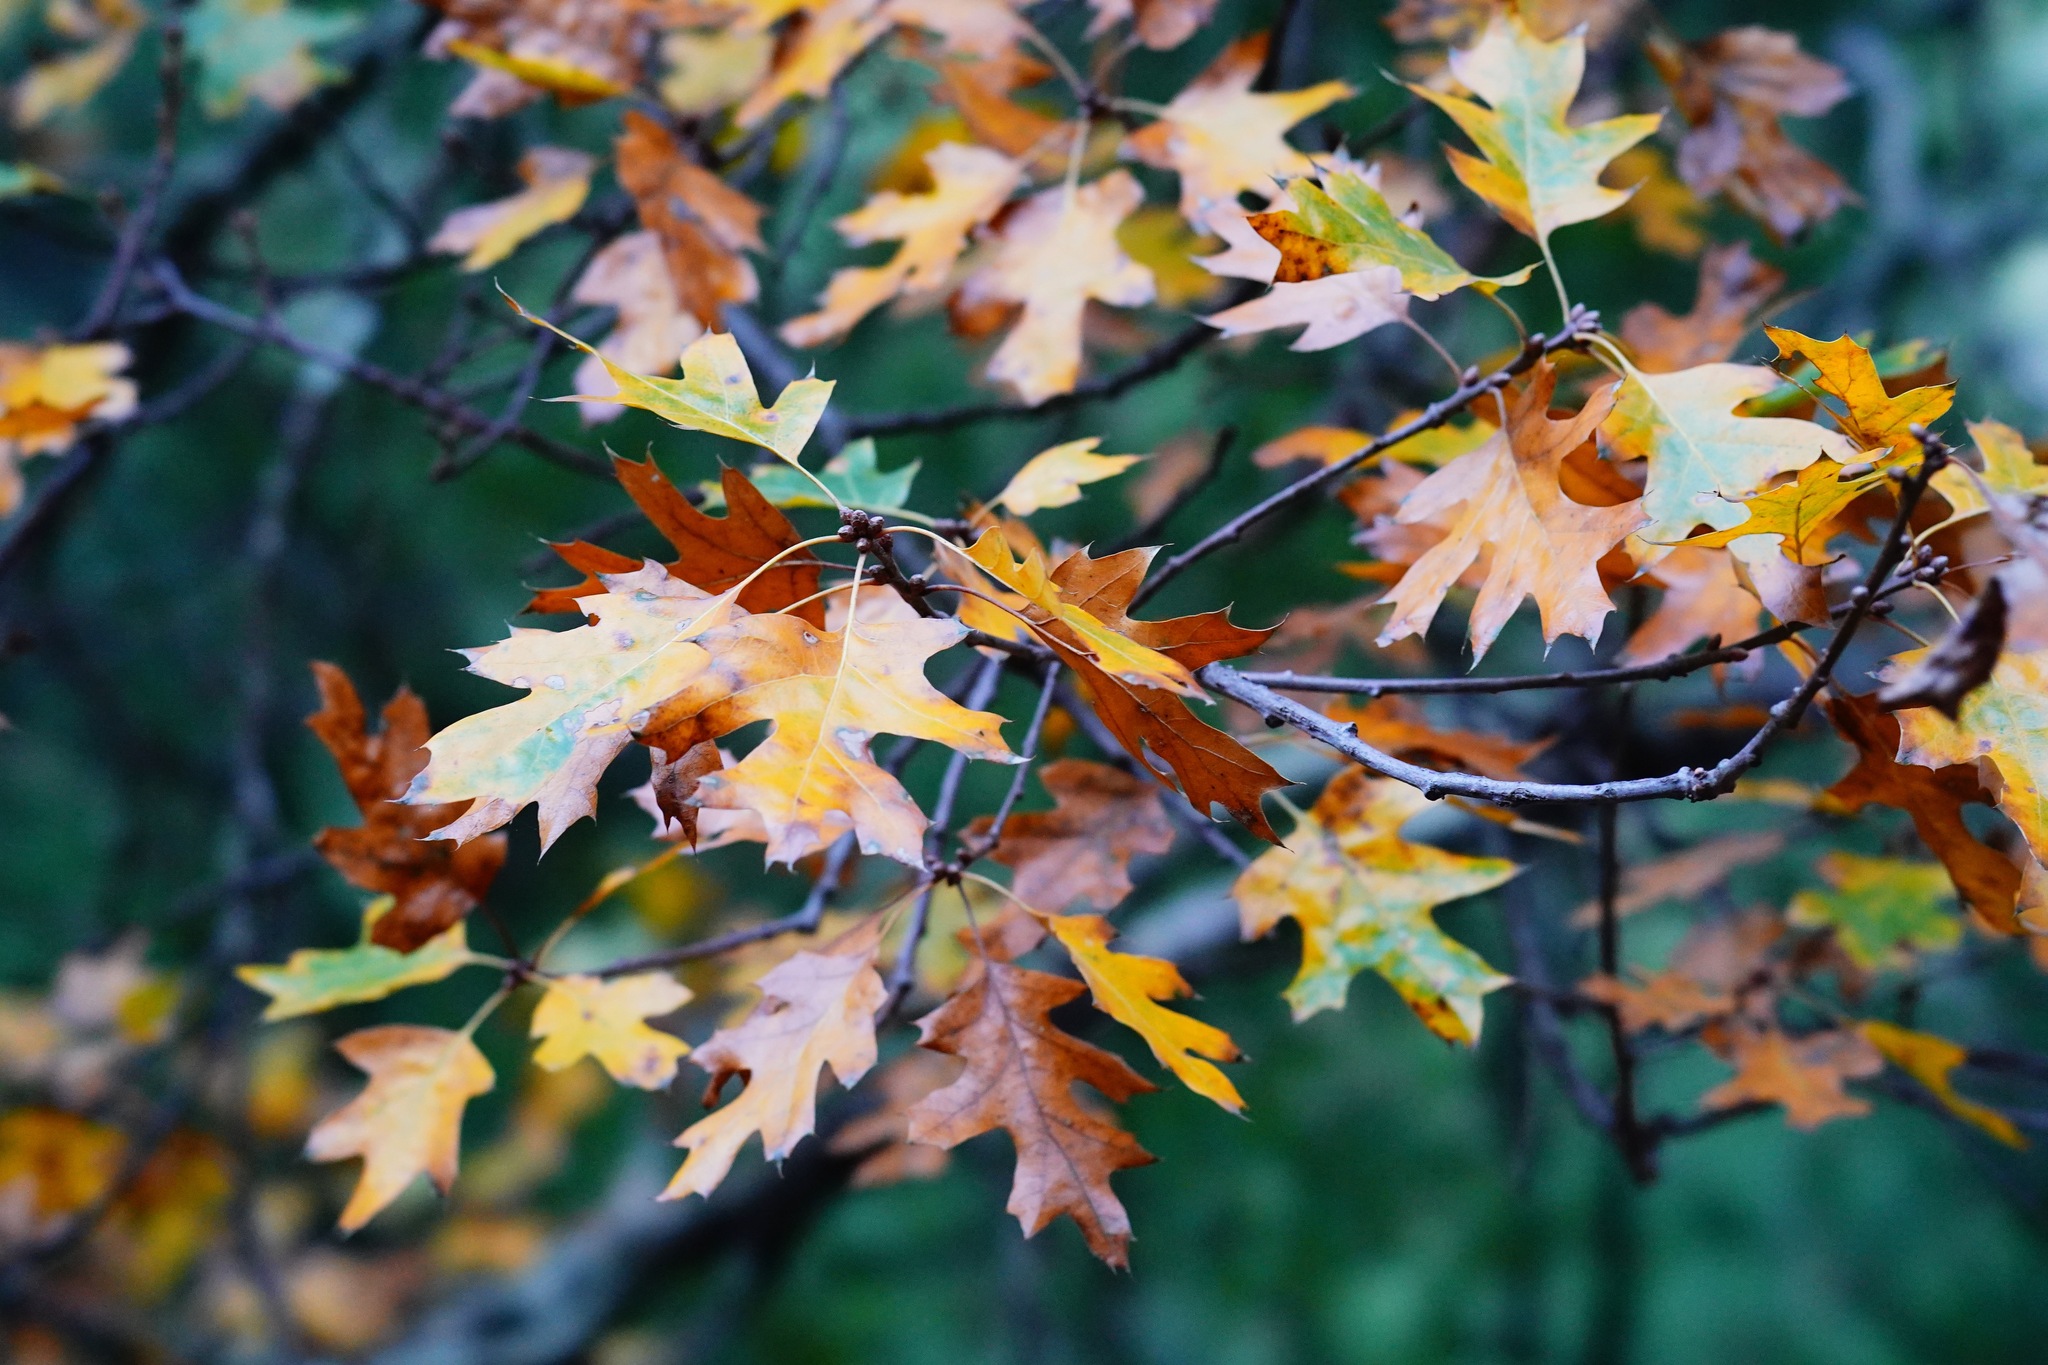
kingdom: Plantae
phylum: Tracheophyta
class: Magnoliopsida
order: Fagales
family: Fagaceae
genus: Quercus
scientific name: Quercus kelloggii
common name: California black oak
